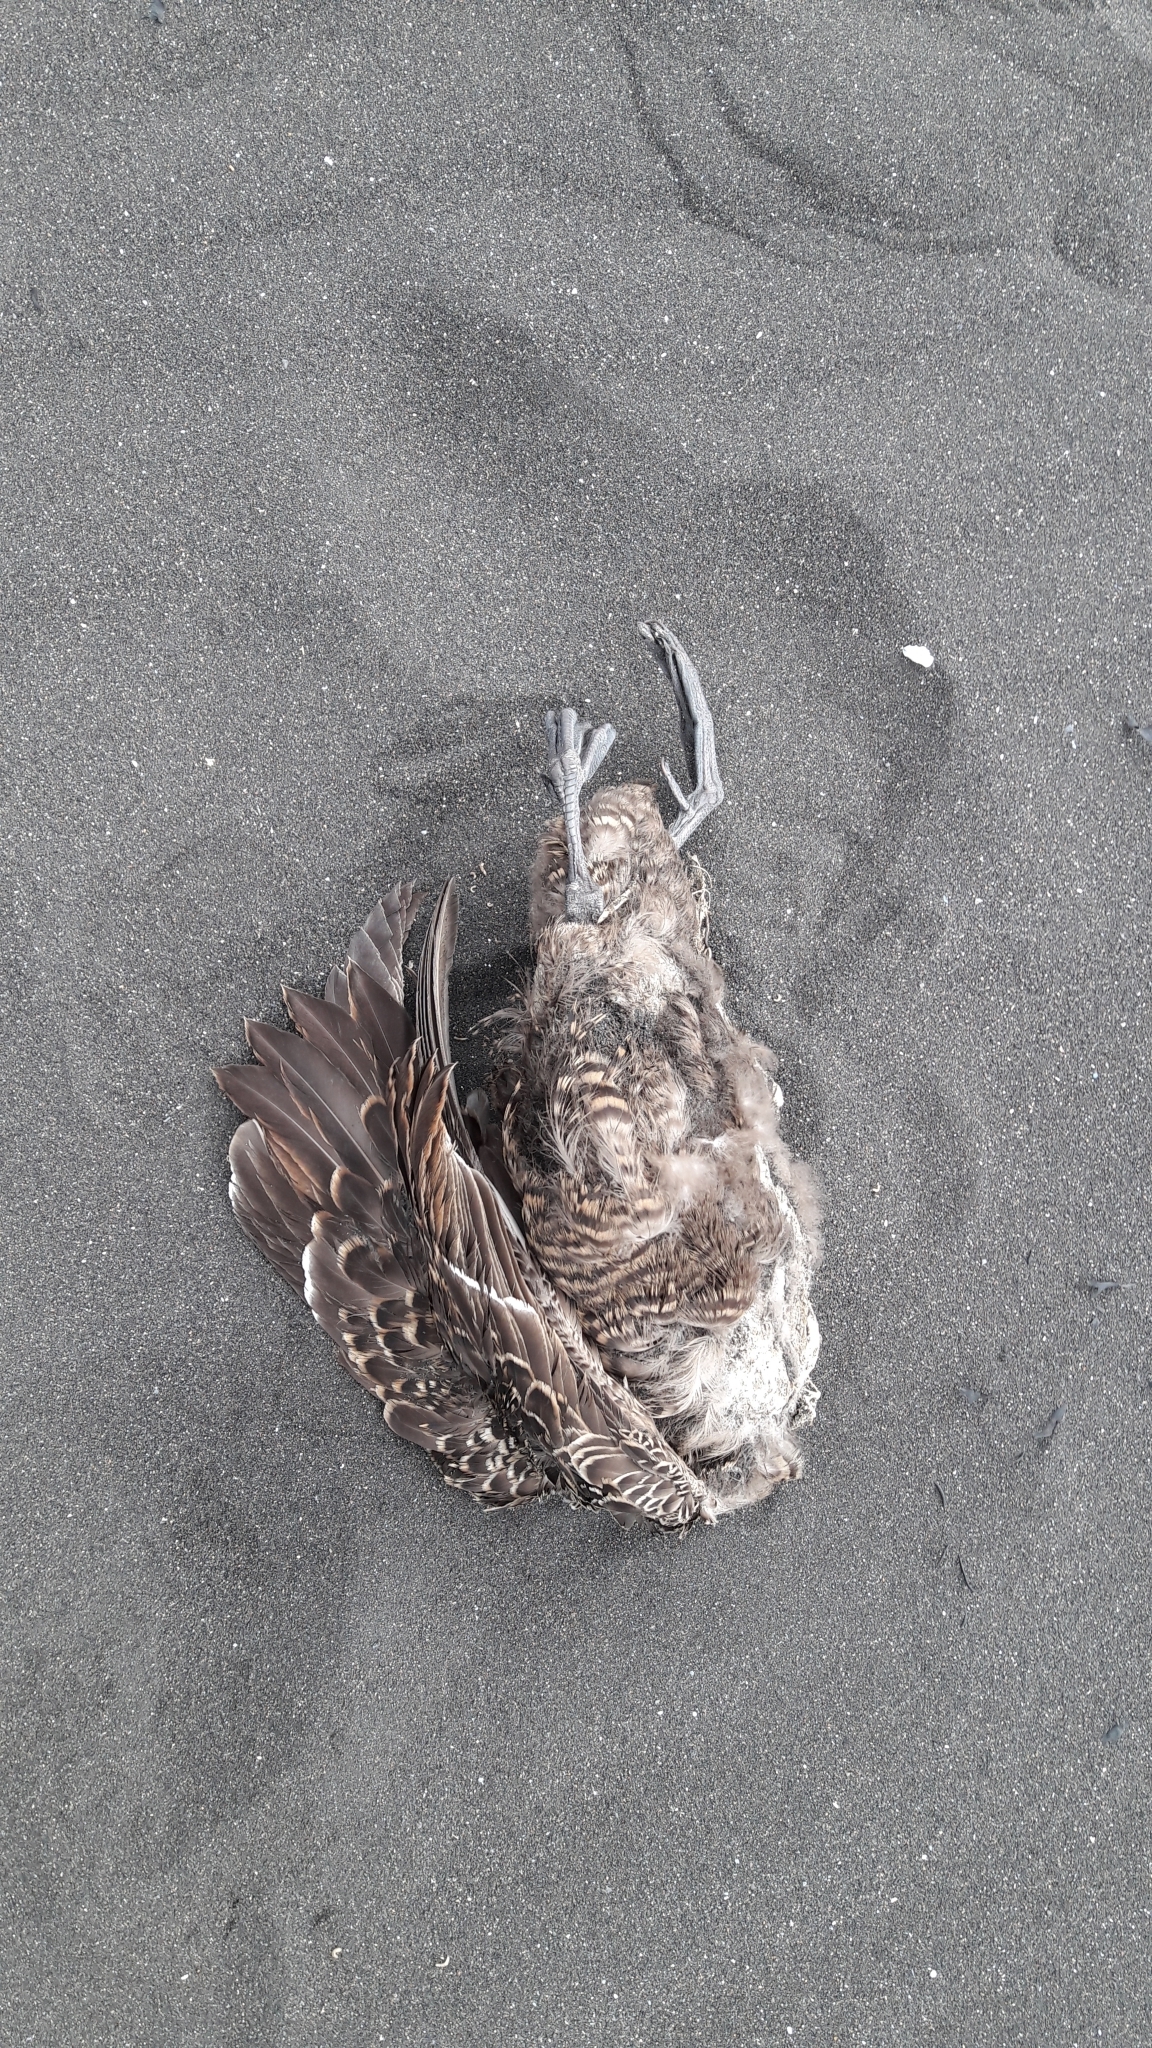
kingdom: Animalia
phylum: Chordata
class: Aves
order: Anseriformes
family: Anatidae
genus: Somateria
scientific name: Somateria mollissima
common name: Common eider
